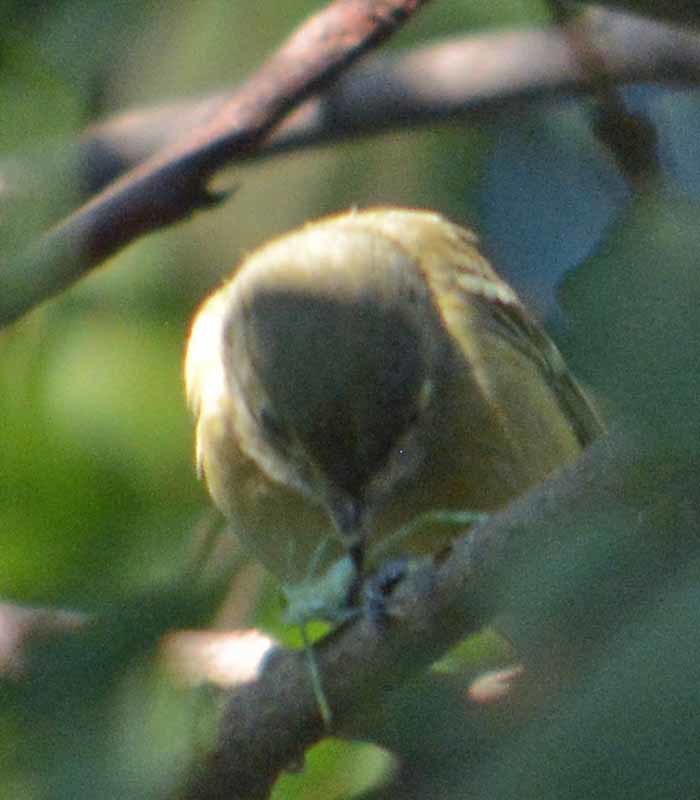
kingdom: Animalia
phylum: Chordata
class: Aves
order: Passeriformes
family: Vireonidae
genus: Vireo
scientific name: Vireo huttoni
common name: Hutton's vireo
